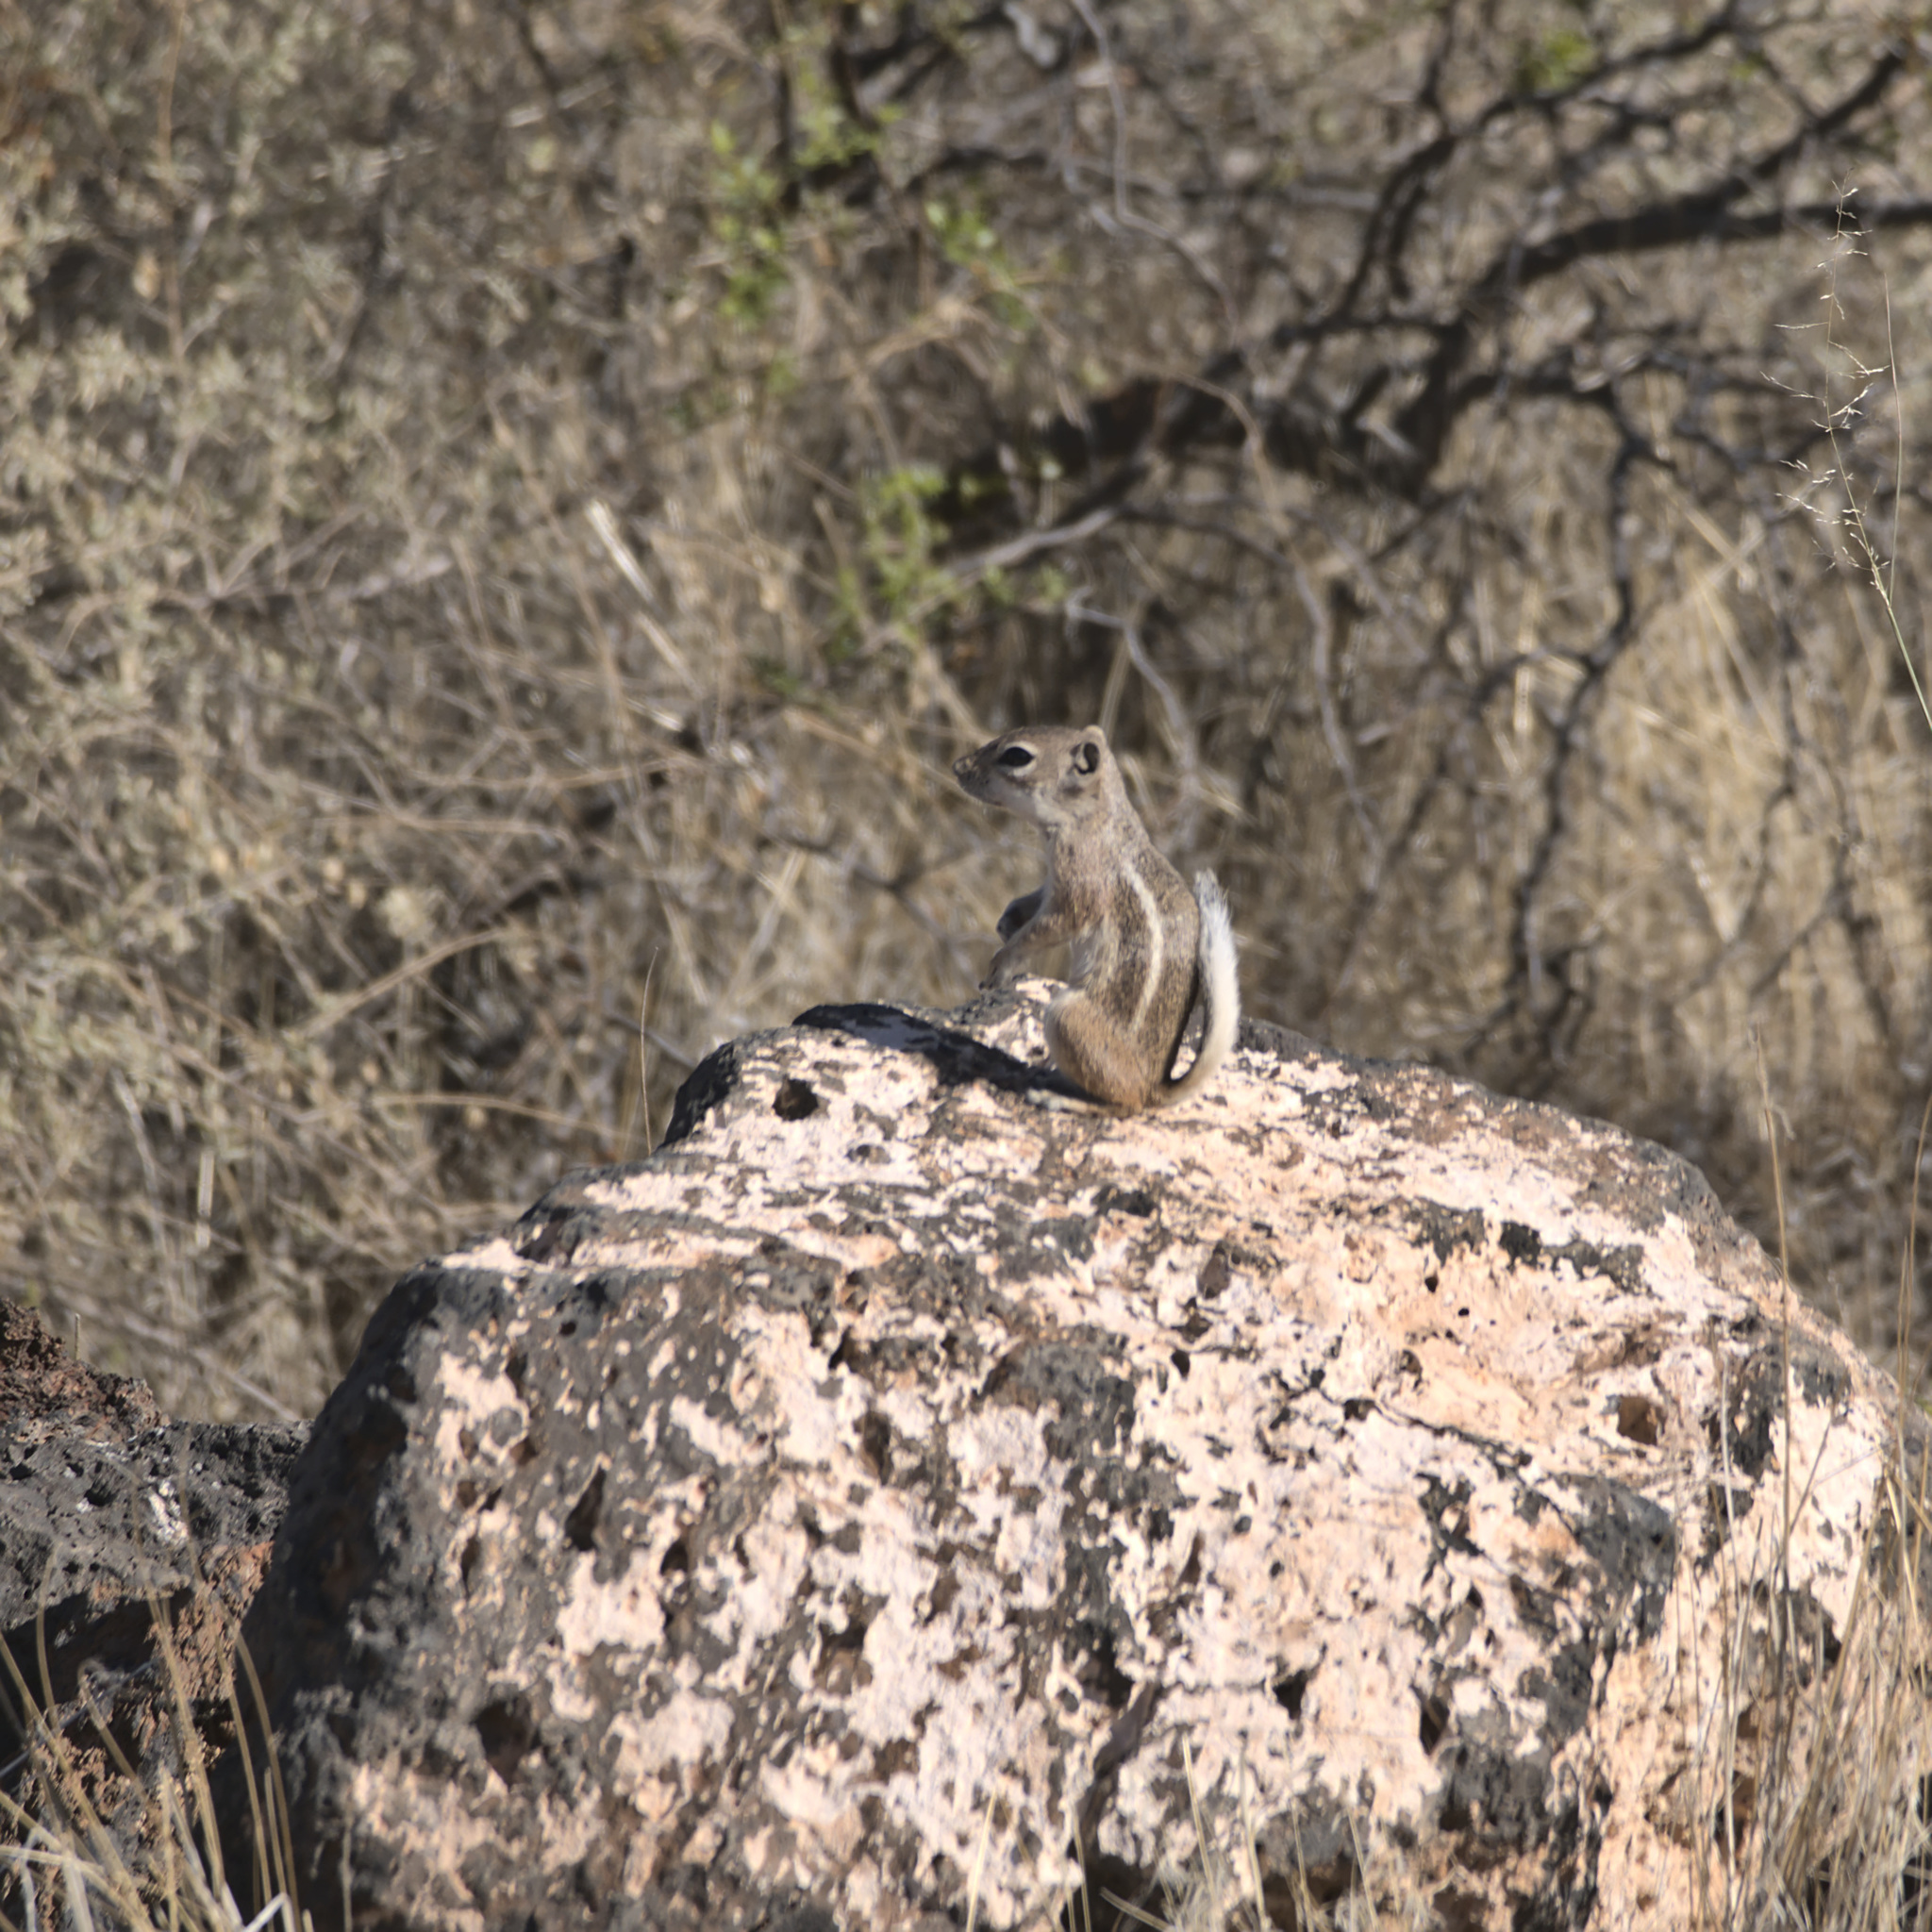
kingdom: Animalia
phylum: Chordata
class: Mammalia
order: Rodentia
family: Sciuridae
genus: Ammospermophilus
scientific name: Ammospermophilus leucurus
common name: White-tailed antelope squirrel
